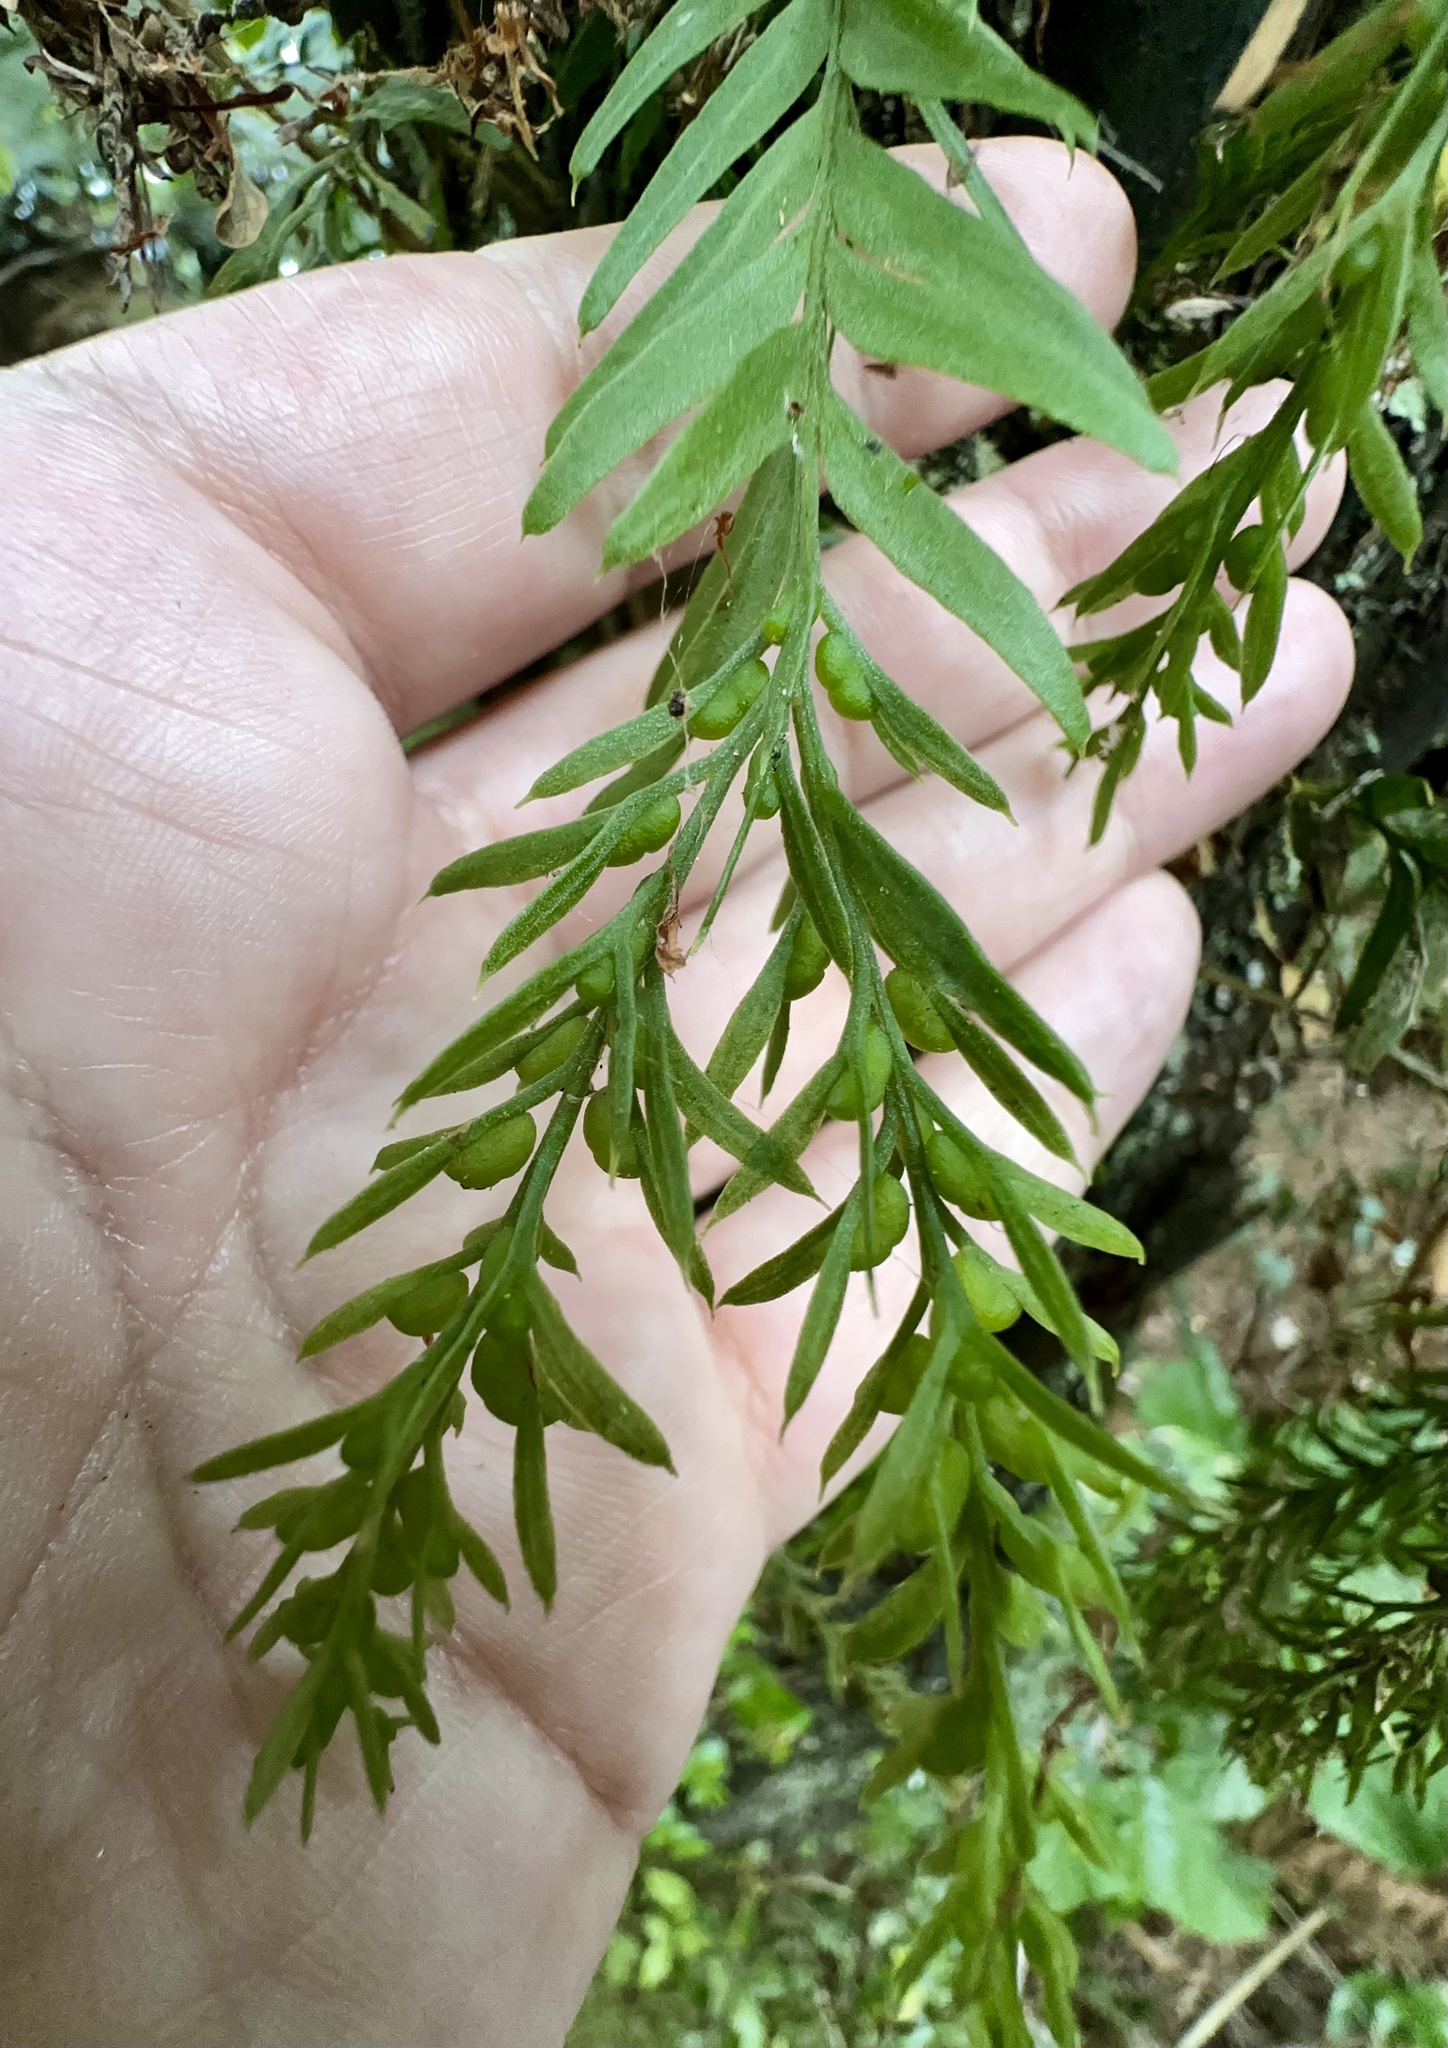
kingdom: Plantae
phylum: Tracheophyta
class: Polypodiopsida
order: Psilotales
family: Psilotaceae
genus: Tmesipteris
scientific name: Tmesipteris elongata
